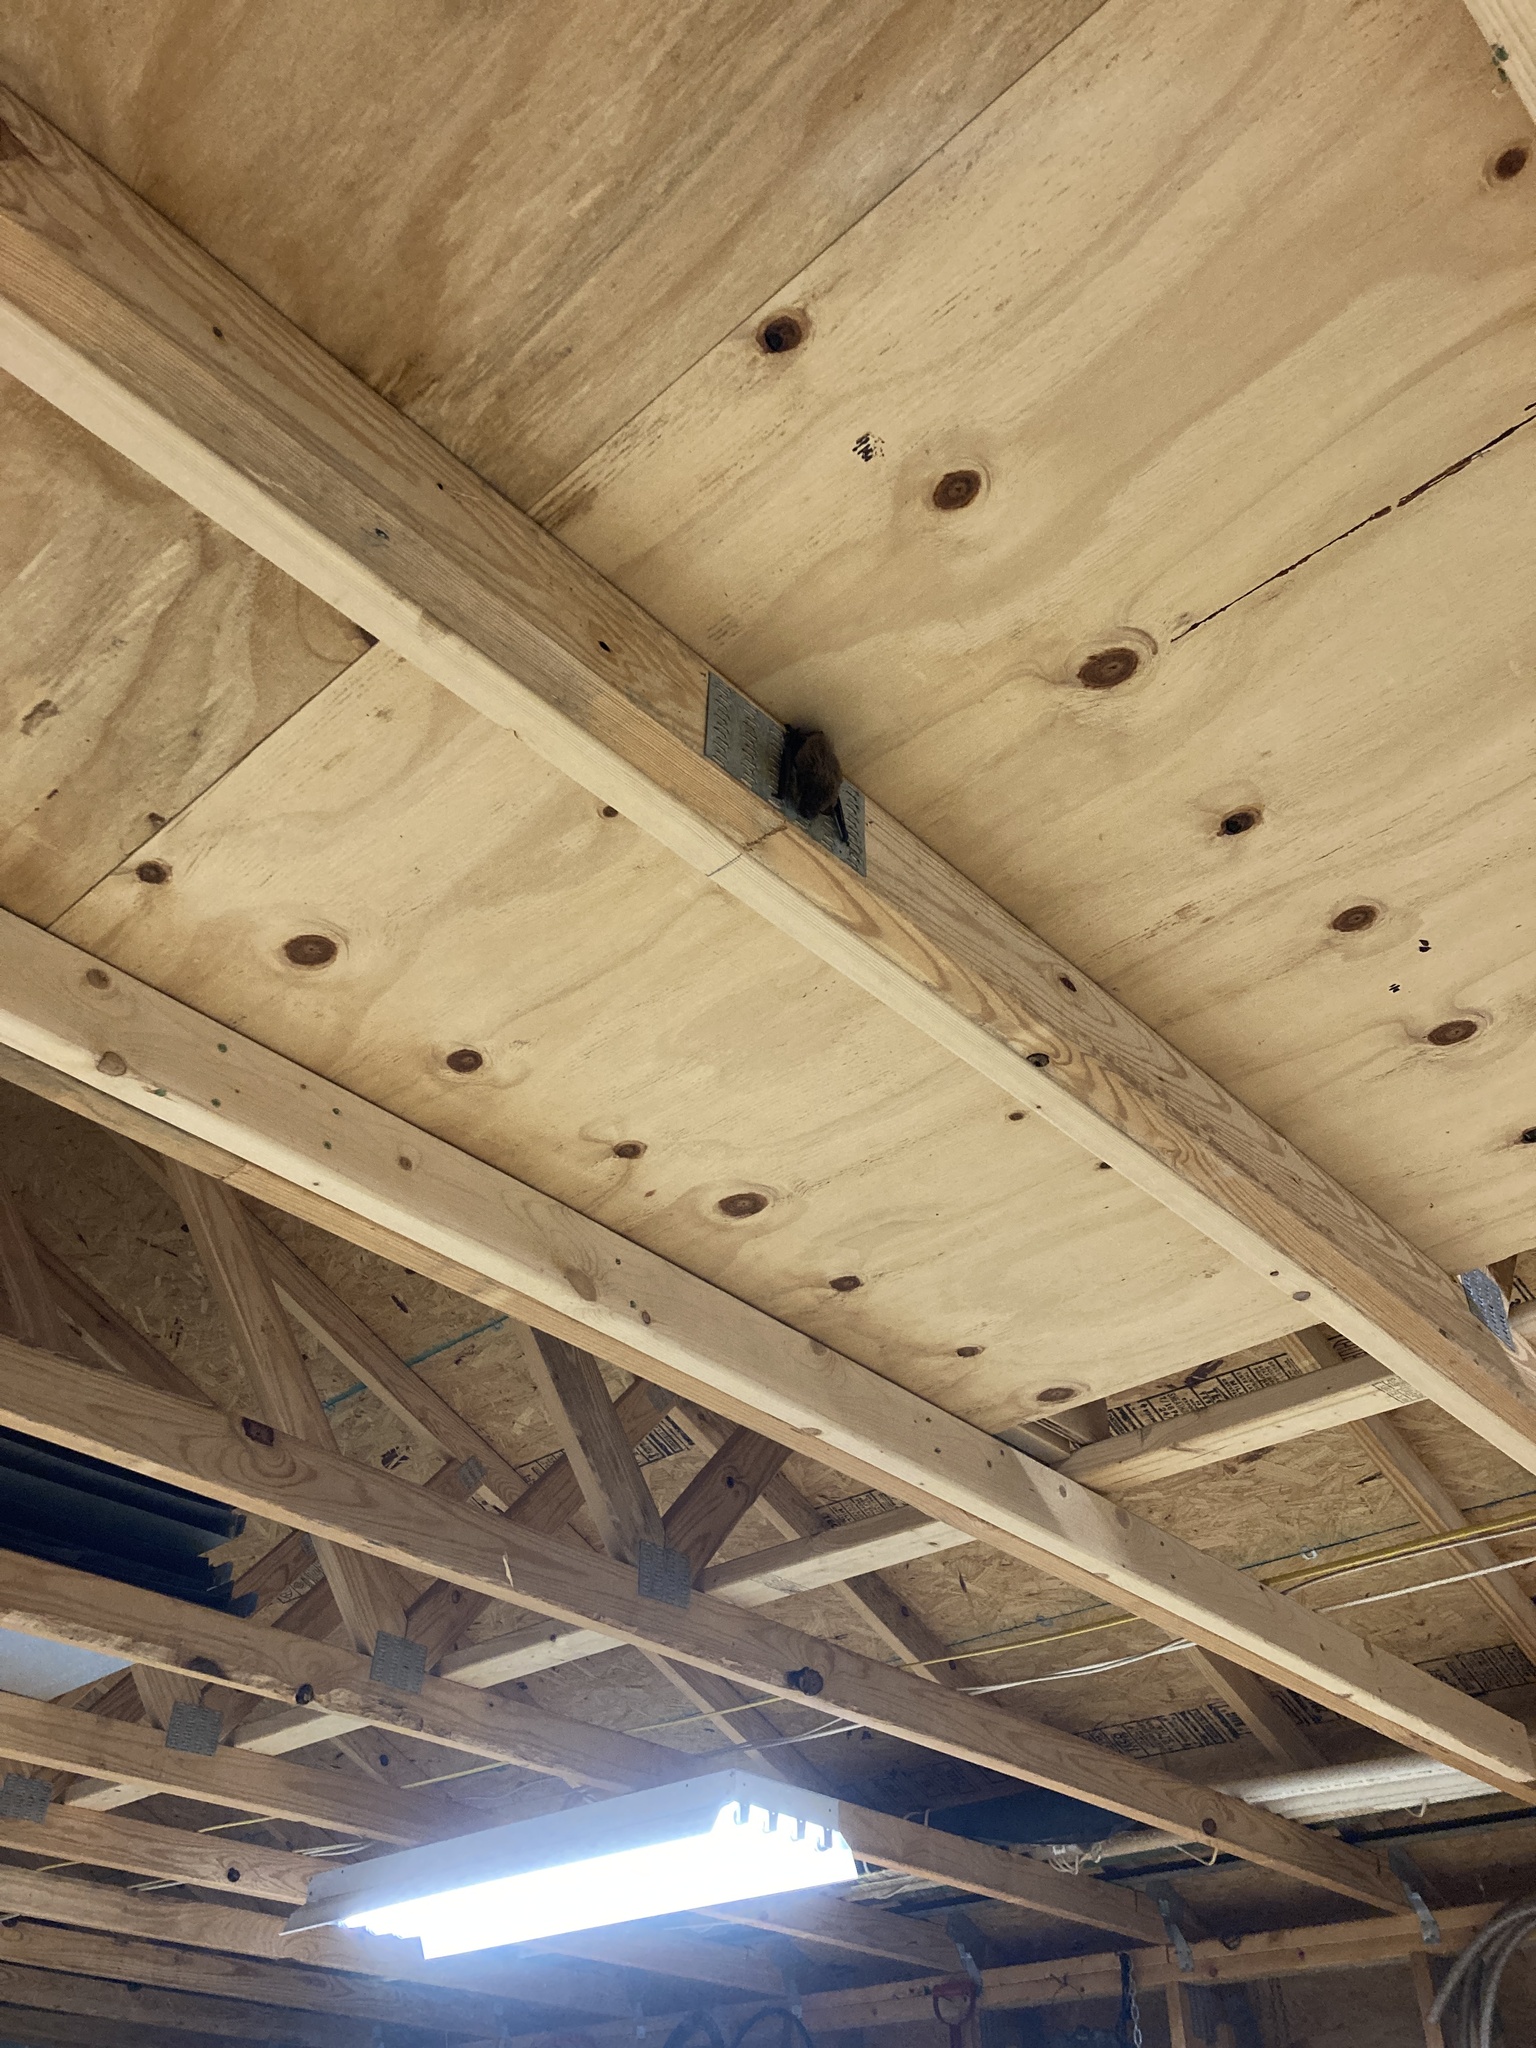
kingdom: Animalia
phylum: Chordata
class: Mammalia
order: Chiroptera
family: Vespertilionidae
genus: Eptesicus
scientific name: Eptesicus fuscus
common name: Big brown bat
